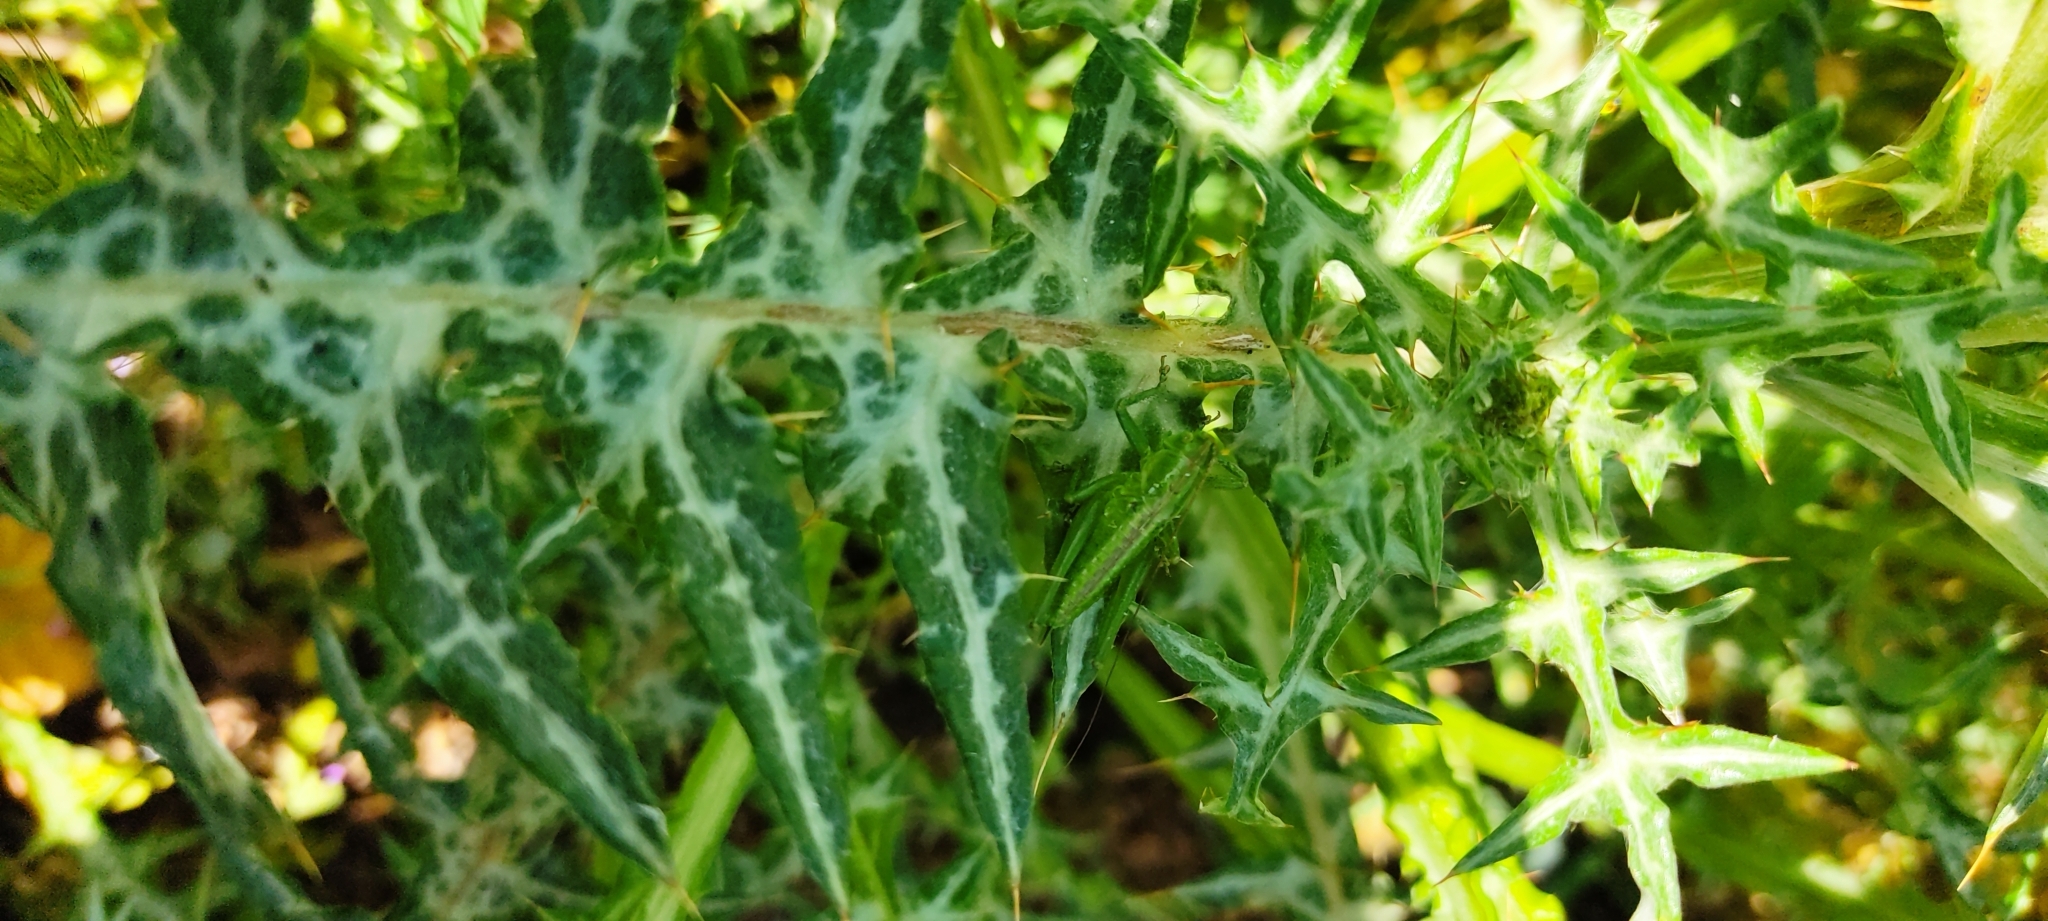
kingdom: Animalia
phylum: Arthropoda
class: Insecta
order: Orthoptera
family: Tettigoniidae
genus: Tettigonia
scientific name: Tettigonia viridissima
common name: Great green bush-cricket
